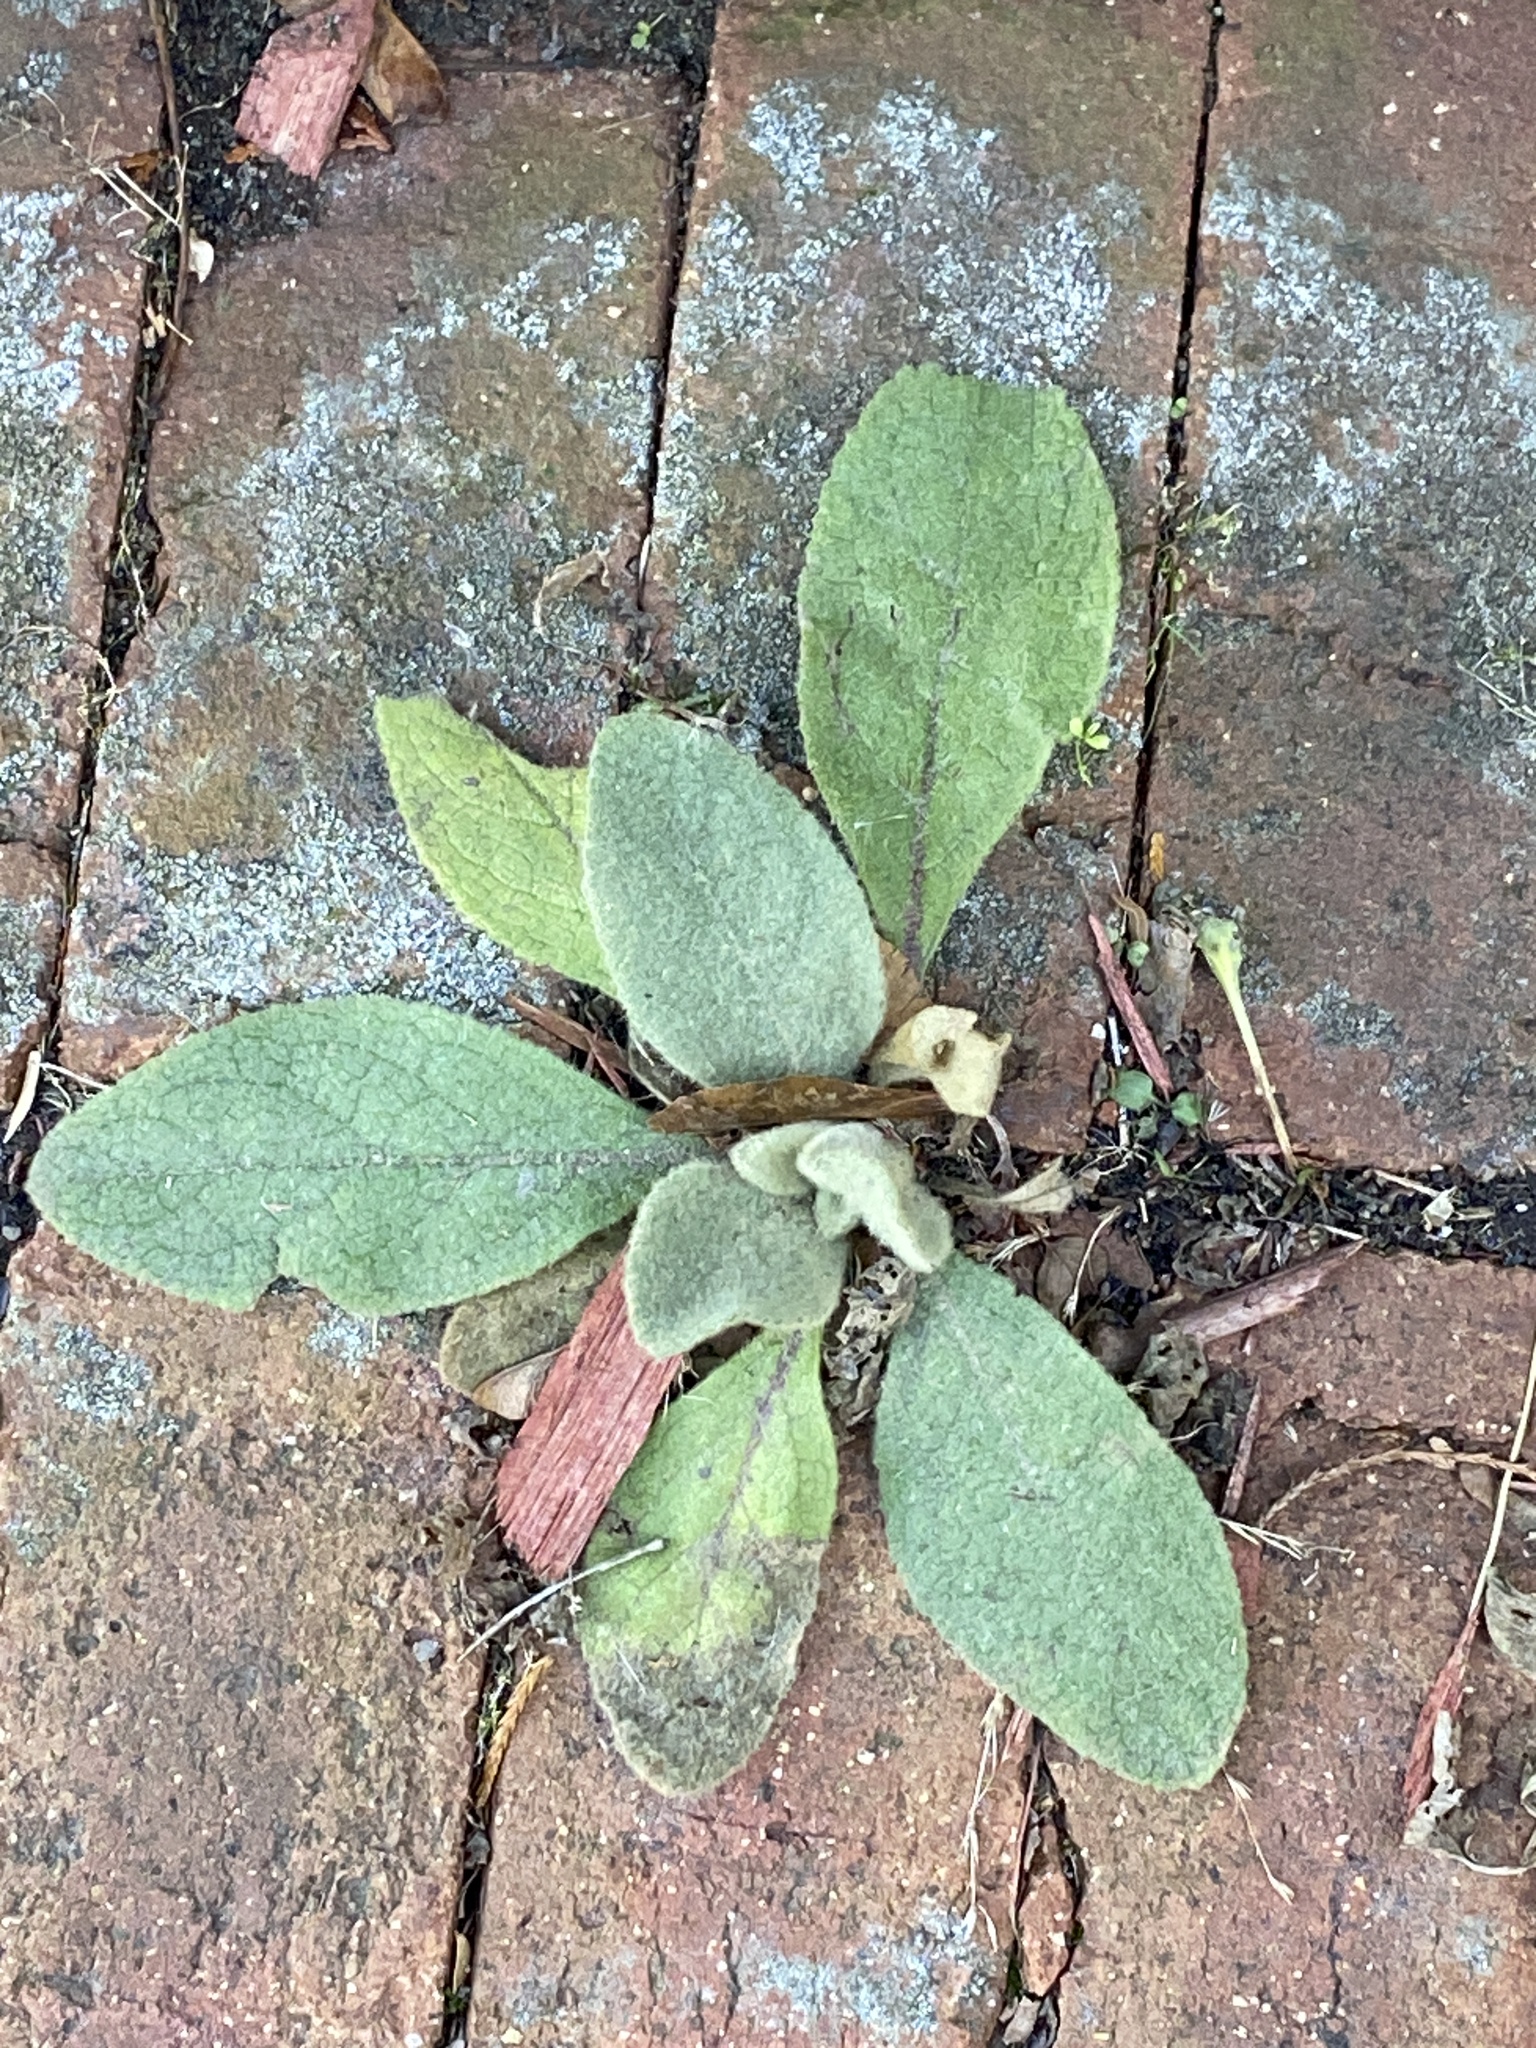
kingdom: Plantae
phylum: Tracheophyta
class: Magnoliopsida
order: Lamiales
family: Scrophulariaceae
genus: Verbascum
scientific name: Verbascum thapsus
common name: Common mullein
